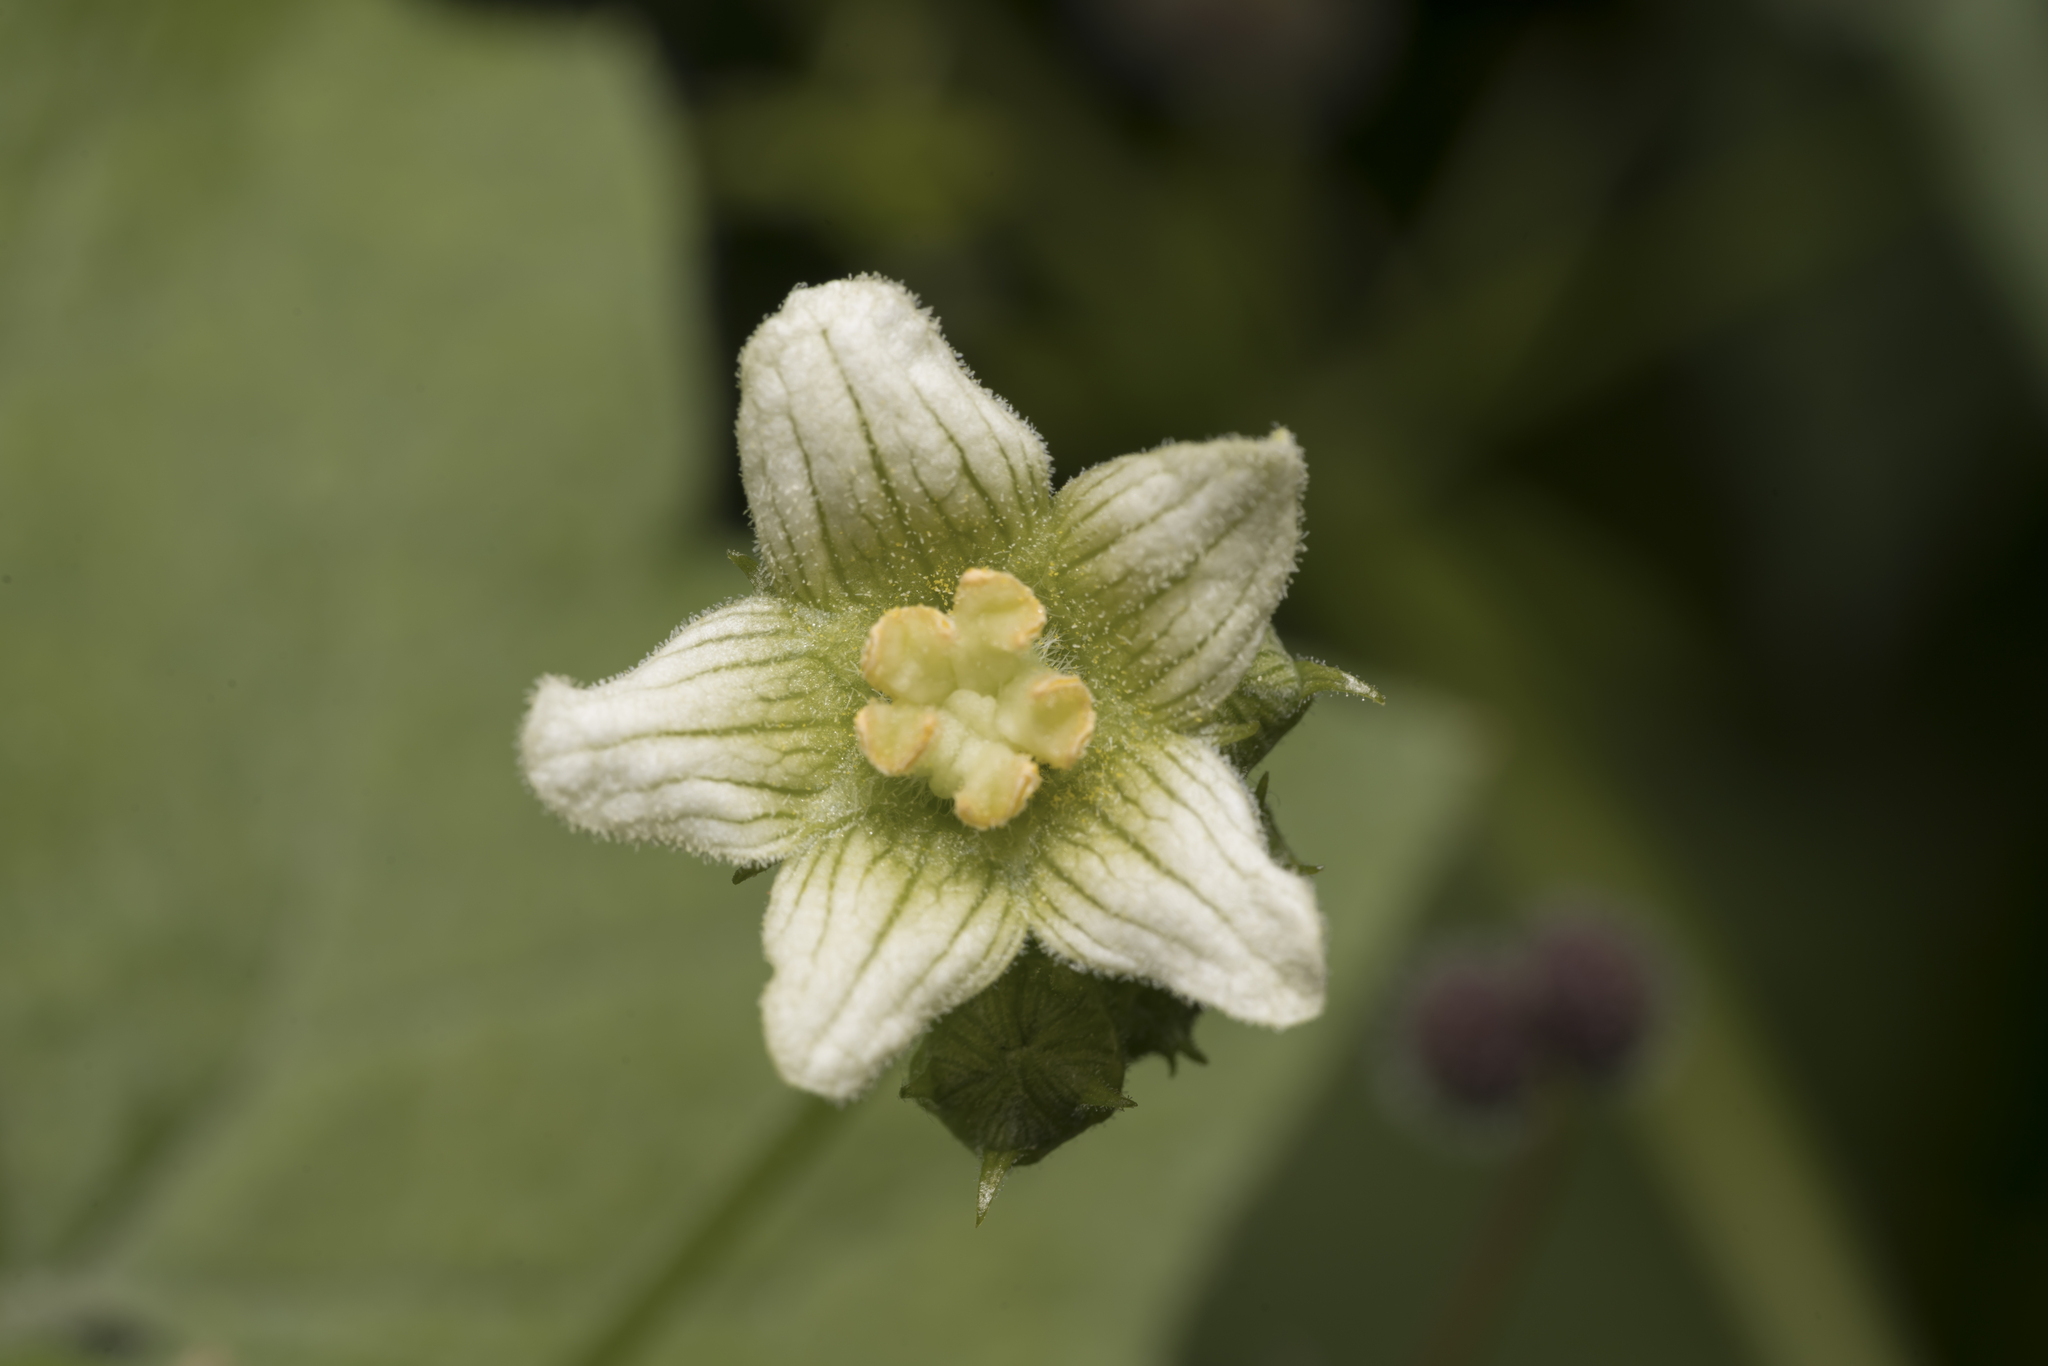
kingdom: Plantae
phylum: Tracheophyta
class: Magnoliopsida
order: Cucurbitales
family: Cucurbitaceae
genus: Bryonia
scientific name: Bryonia dioica
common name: White bryony
